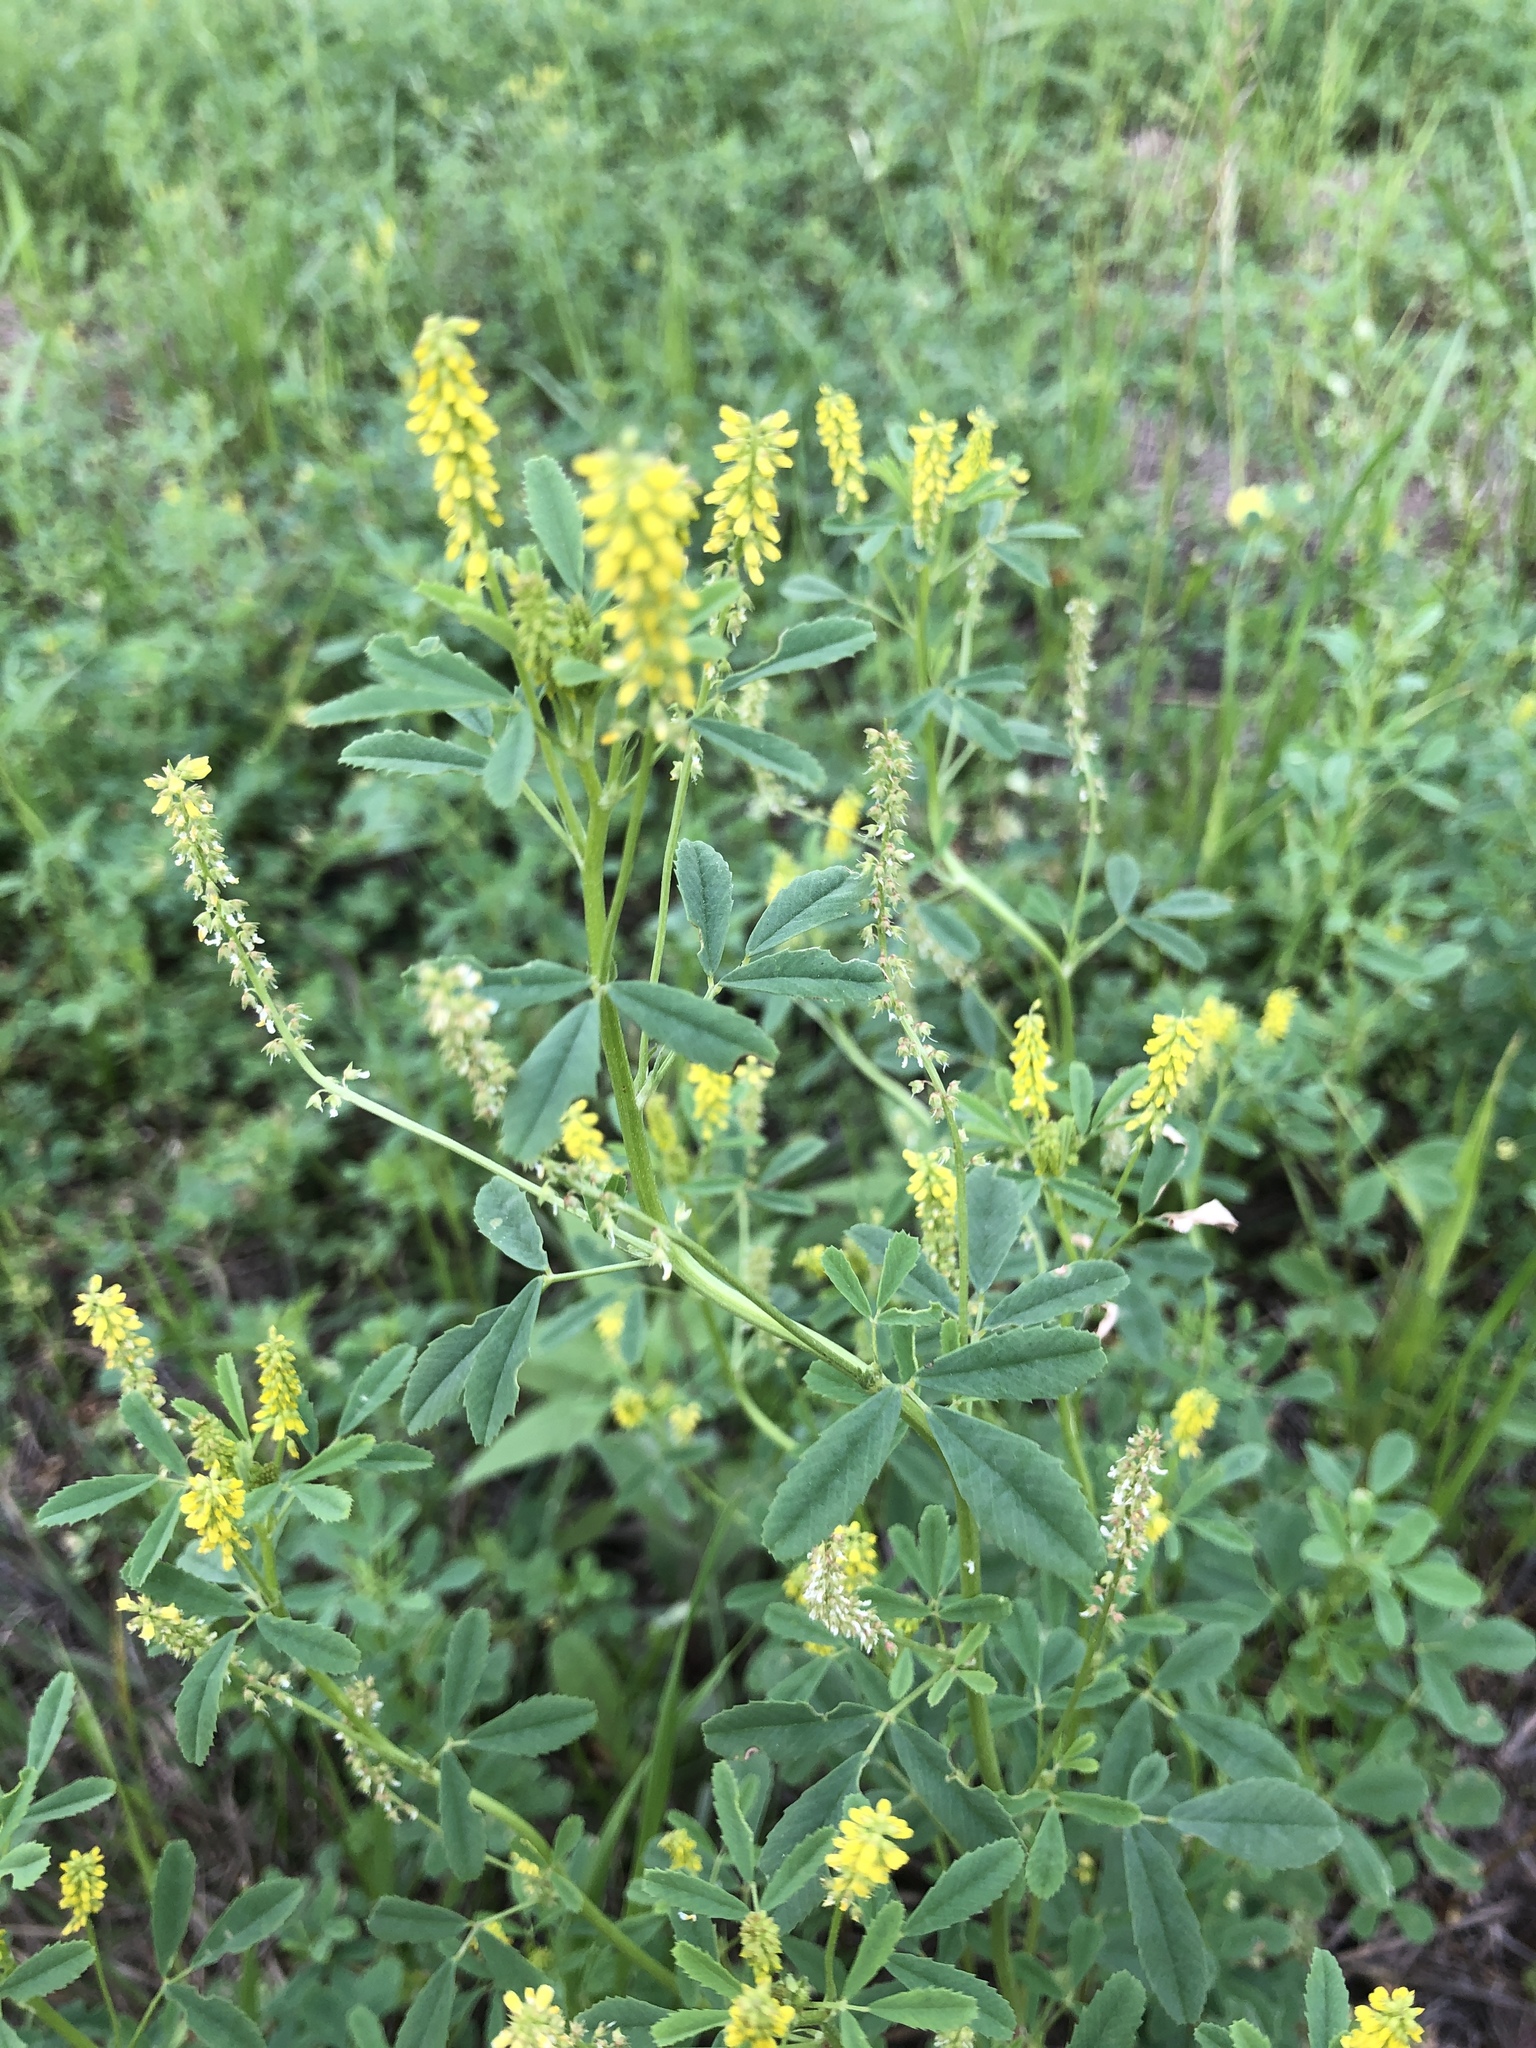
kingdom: Plantae
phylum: Tracheophyta
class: Magnoliopsida
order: Fabales
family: Fabaceae
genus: Melilotus
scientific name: Melilotus indicus
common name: Small melilot
